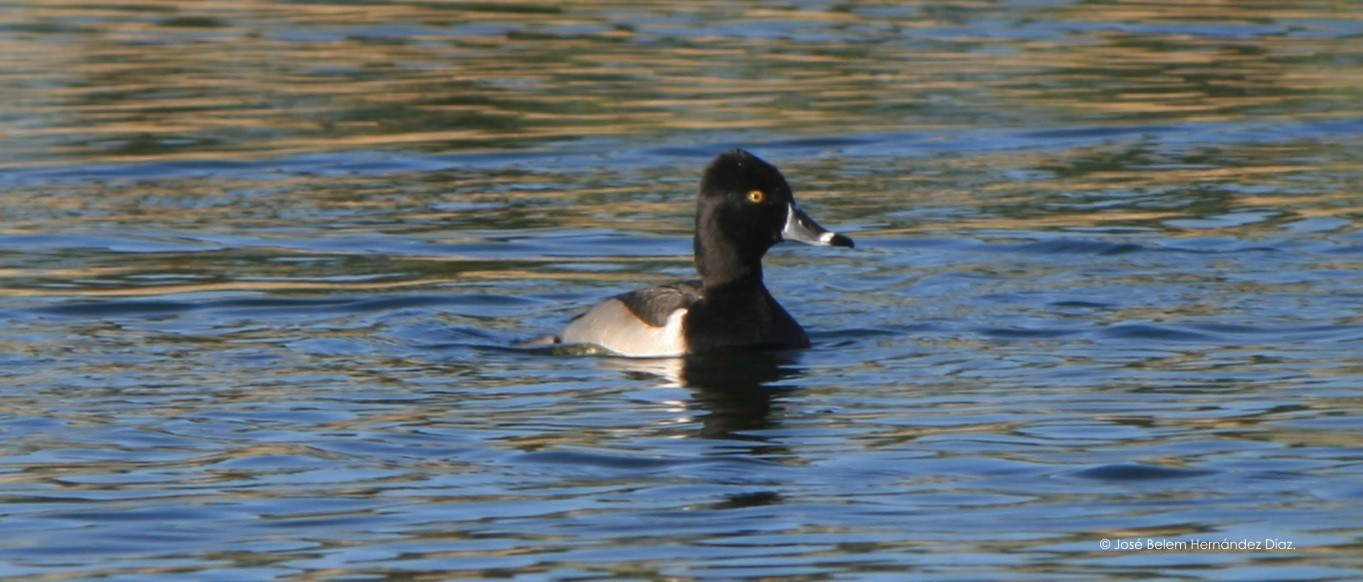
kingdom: Animalia
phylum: Chordata
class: Aves
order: Anseriformes
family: Anatidae
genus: Aythya
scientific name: Aythya collaris
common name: Ring-necked duck
